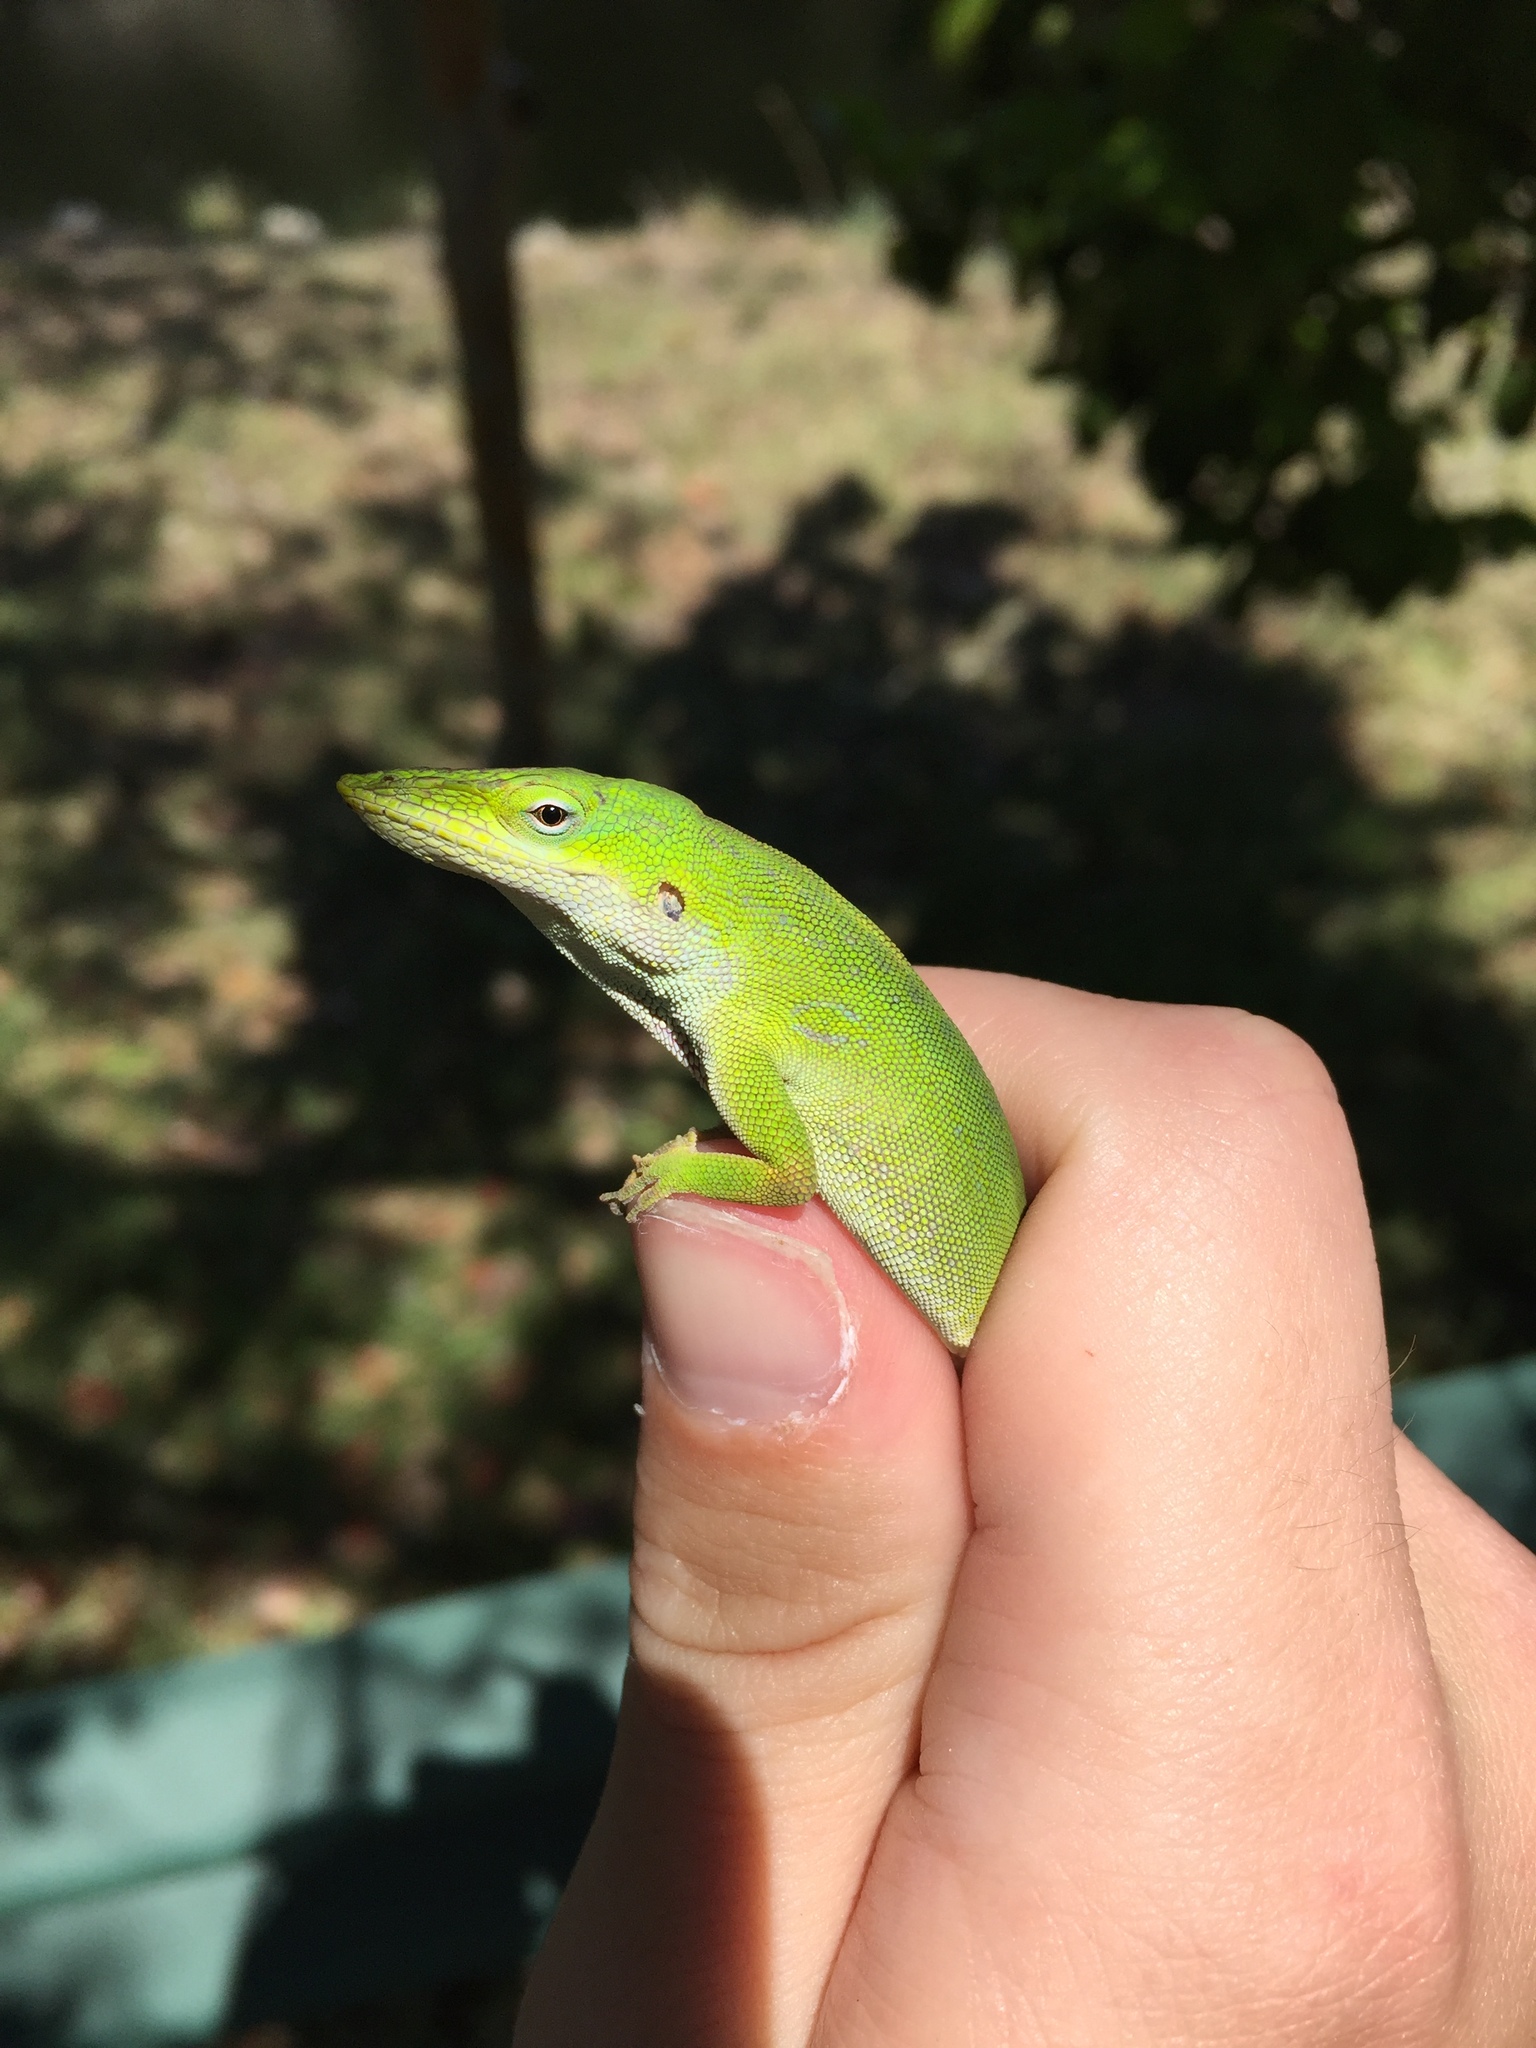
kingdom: Animalia
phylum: Chordata
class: Squamata
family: Dactyloidae
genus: Anolis
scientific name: Anolis carolinensis
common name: Green anole
